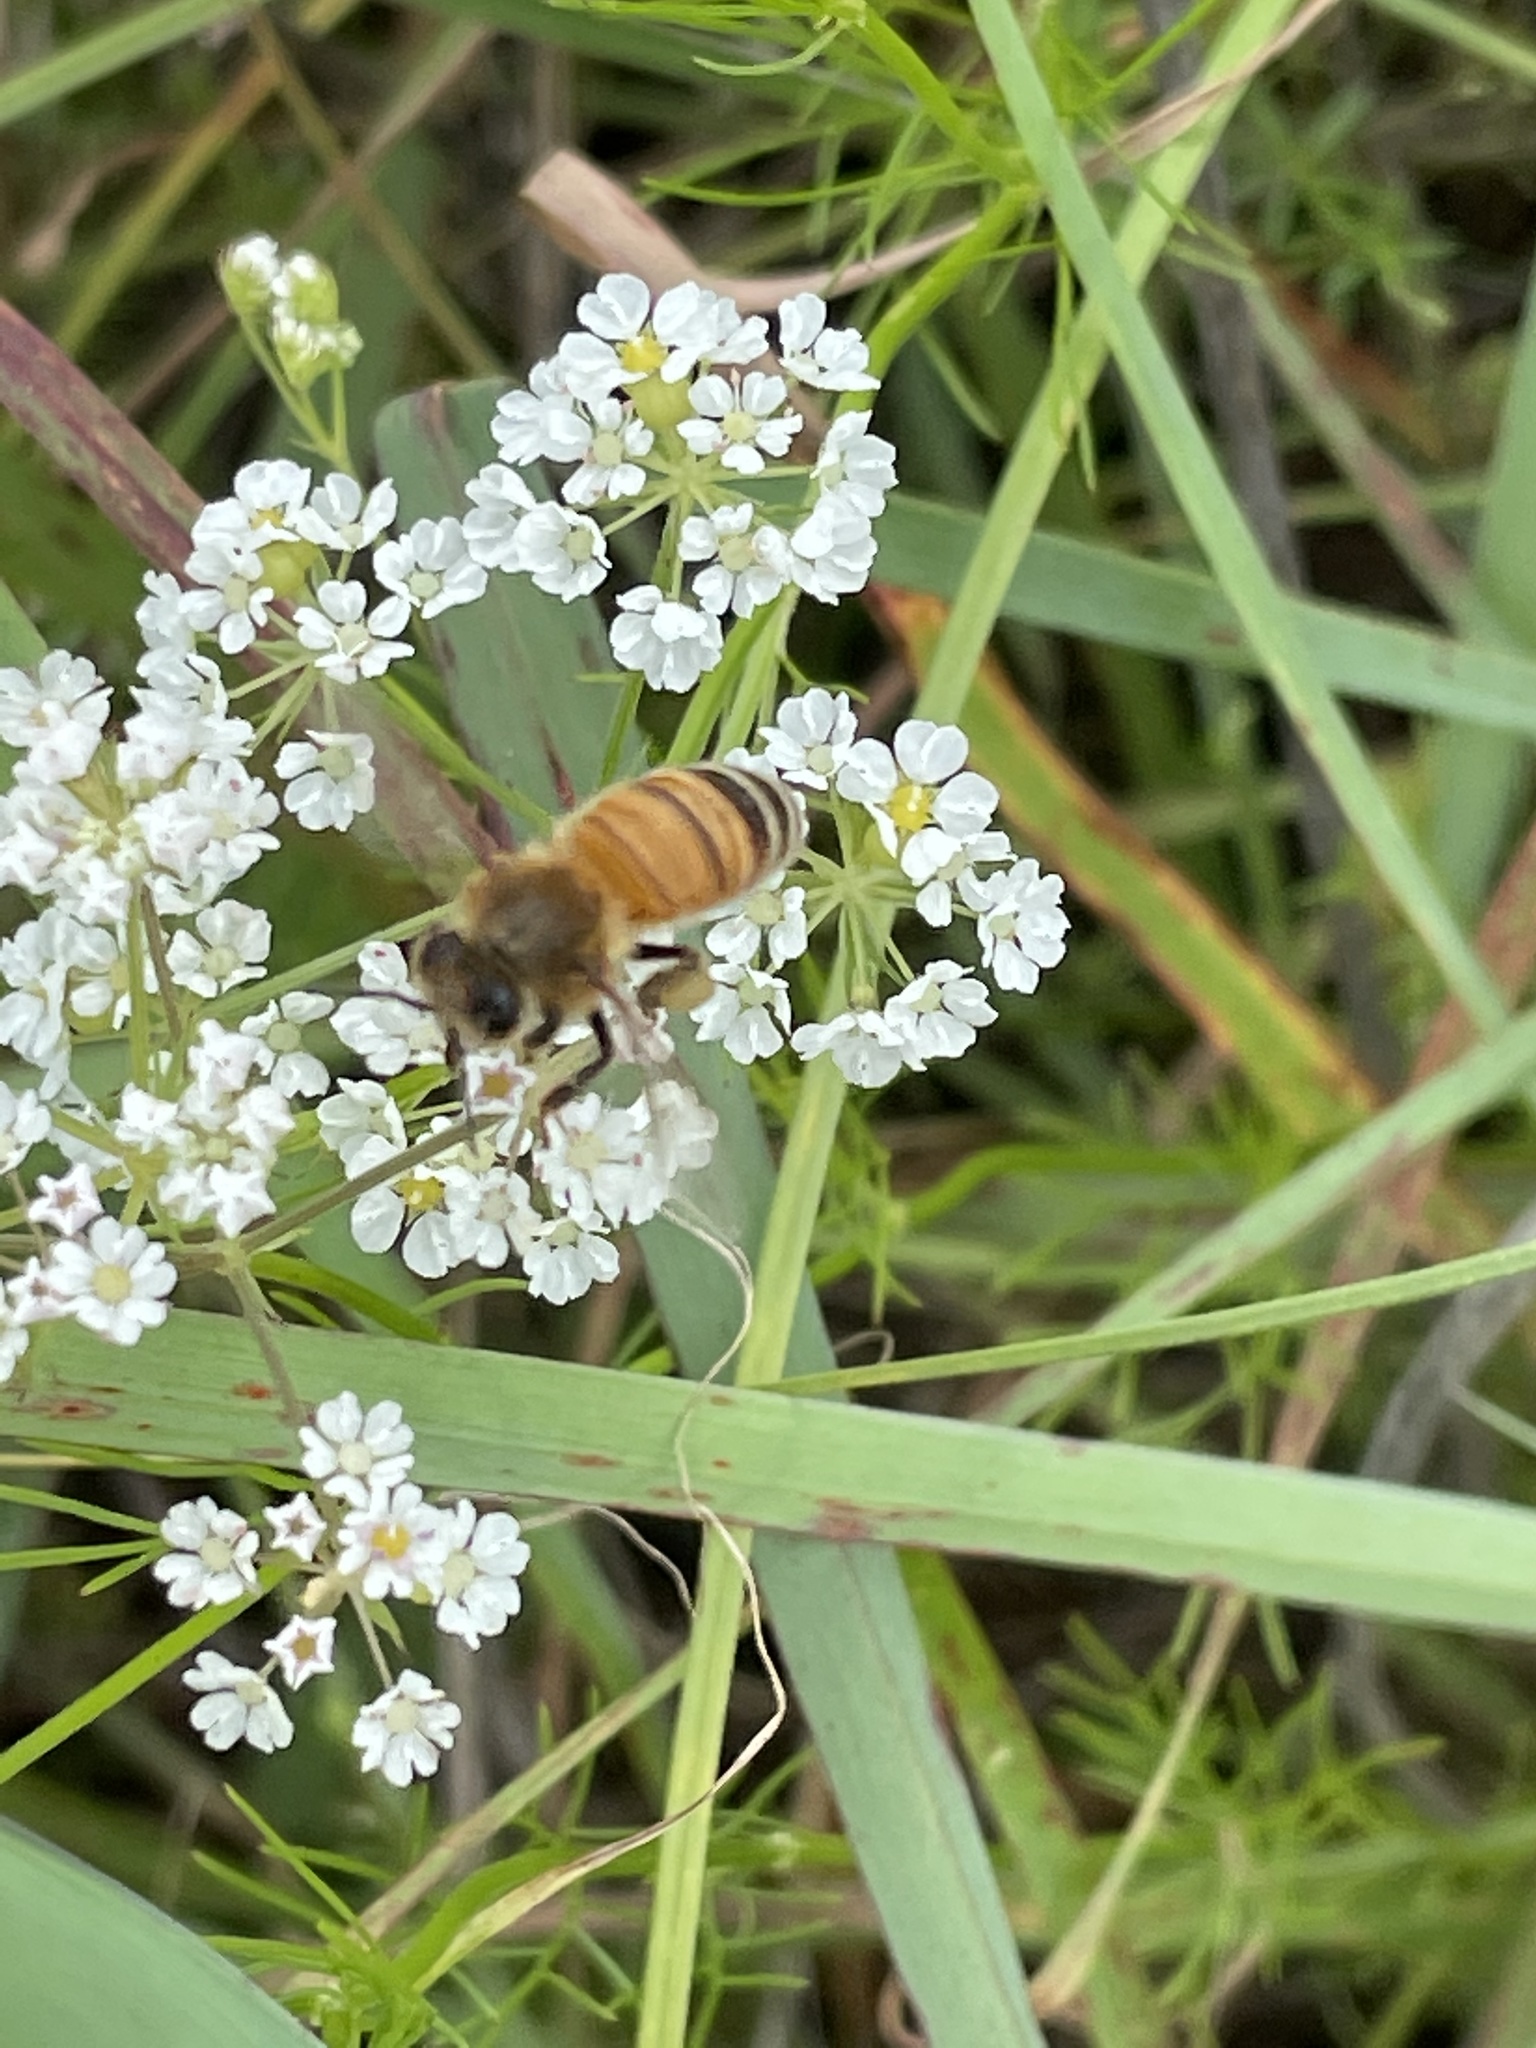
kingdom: Animalia
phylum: Arthropoda
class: Insecta
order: Hymenoptera
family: Apidae
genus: Apis
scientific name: Apis mellifera
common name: Honey bee
